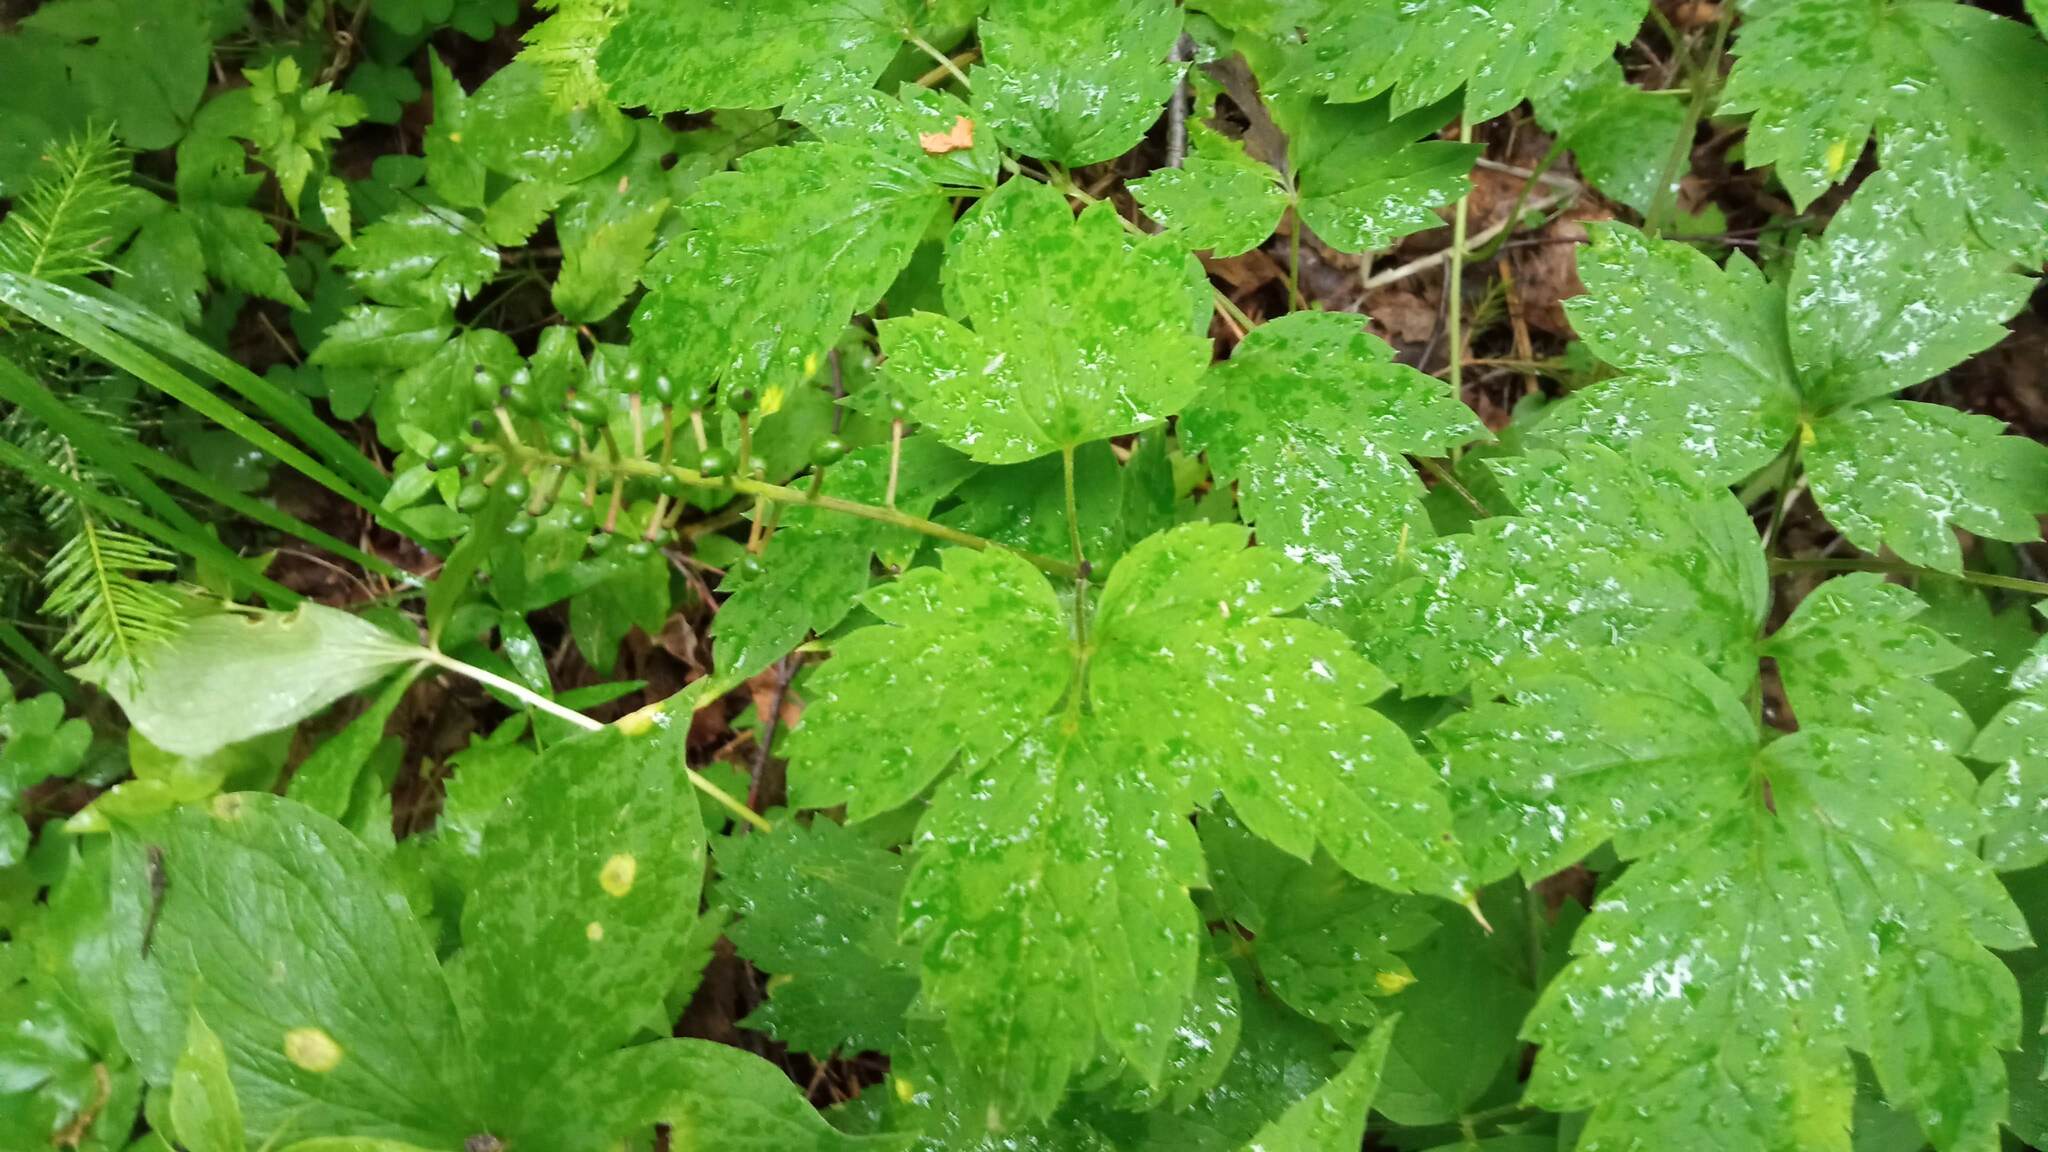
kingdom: Plantae
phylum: Tracheophyta
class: Magnoliopsida
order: Ranunculales
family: Ranunculaceae
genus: Actaea
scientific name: Actaea erythrocarpa
